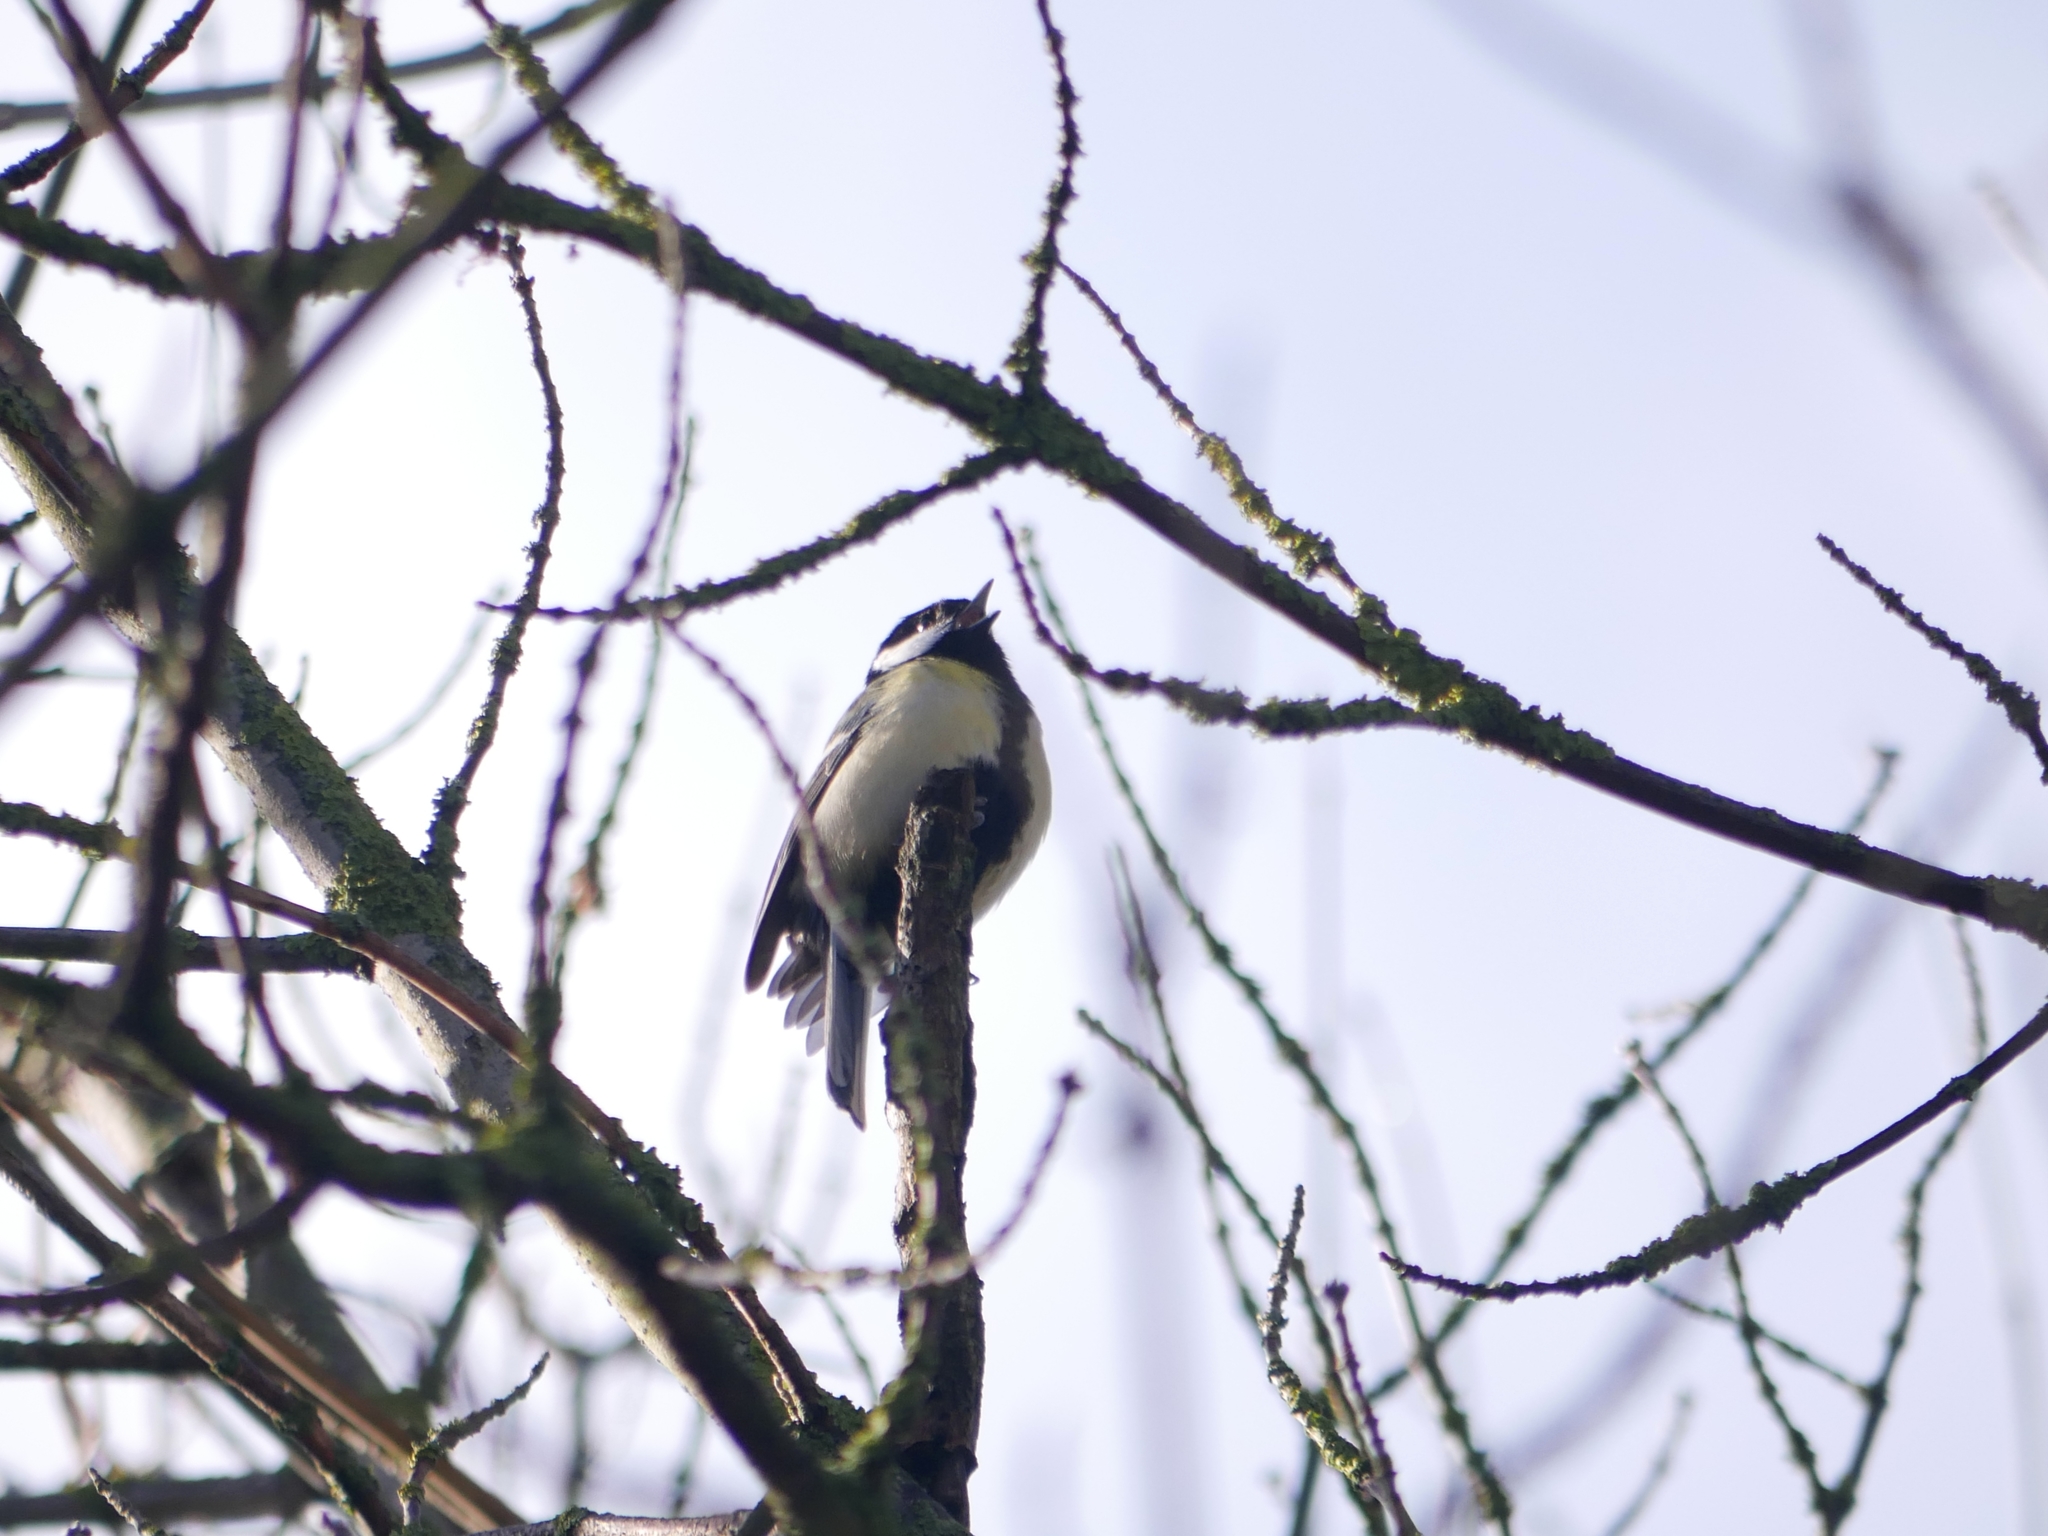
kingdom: Animalia
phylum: Chordata
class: Aves
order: Passeriformes
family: Paridae
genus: Parus
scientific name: Parus major
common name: Great tit
